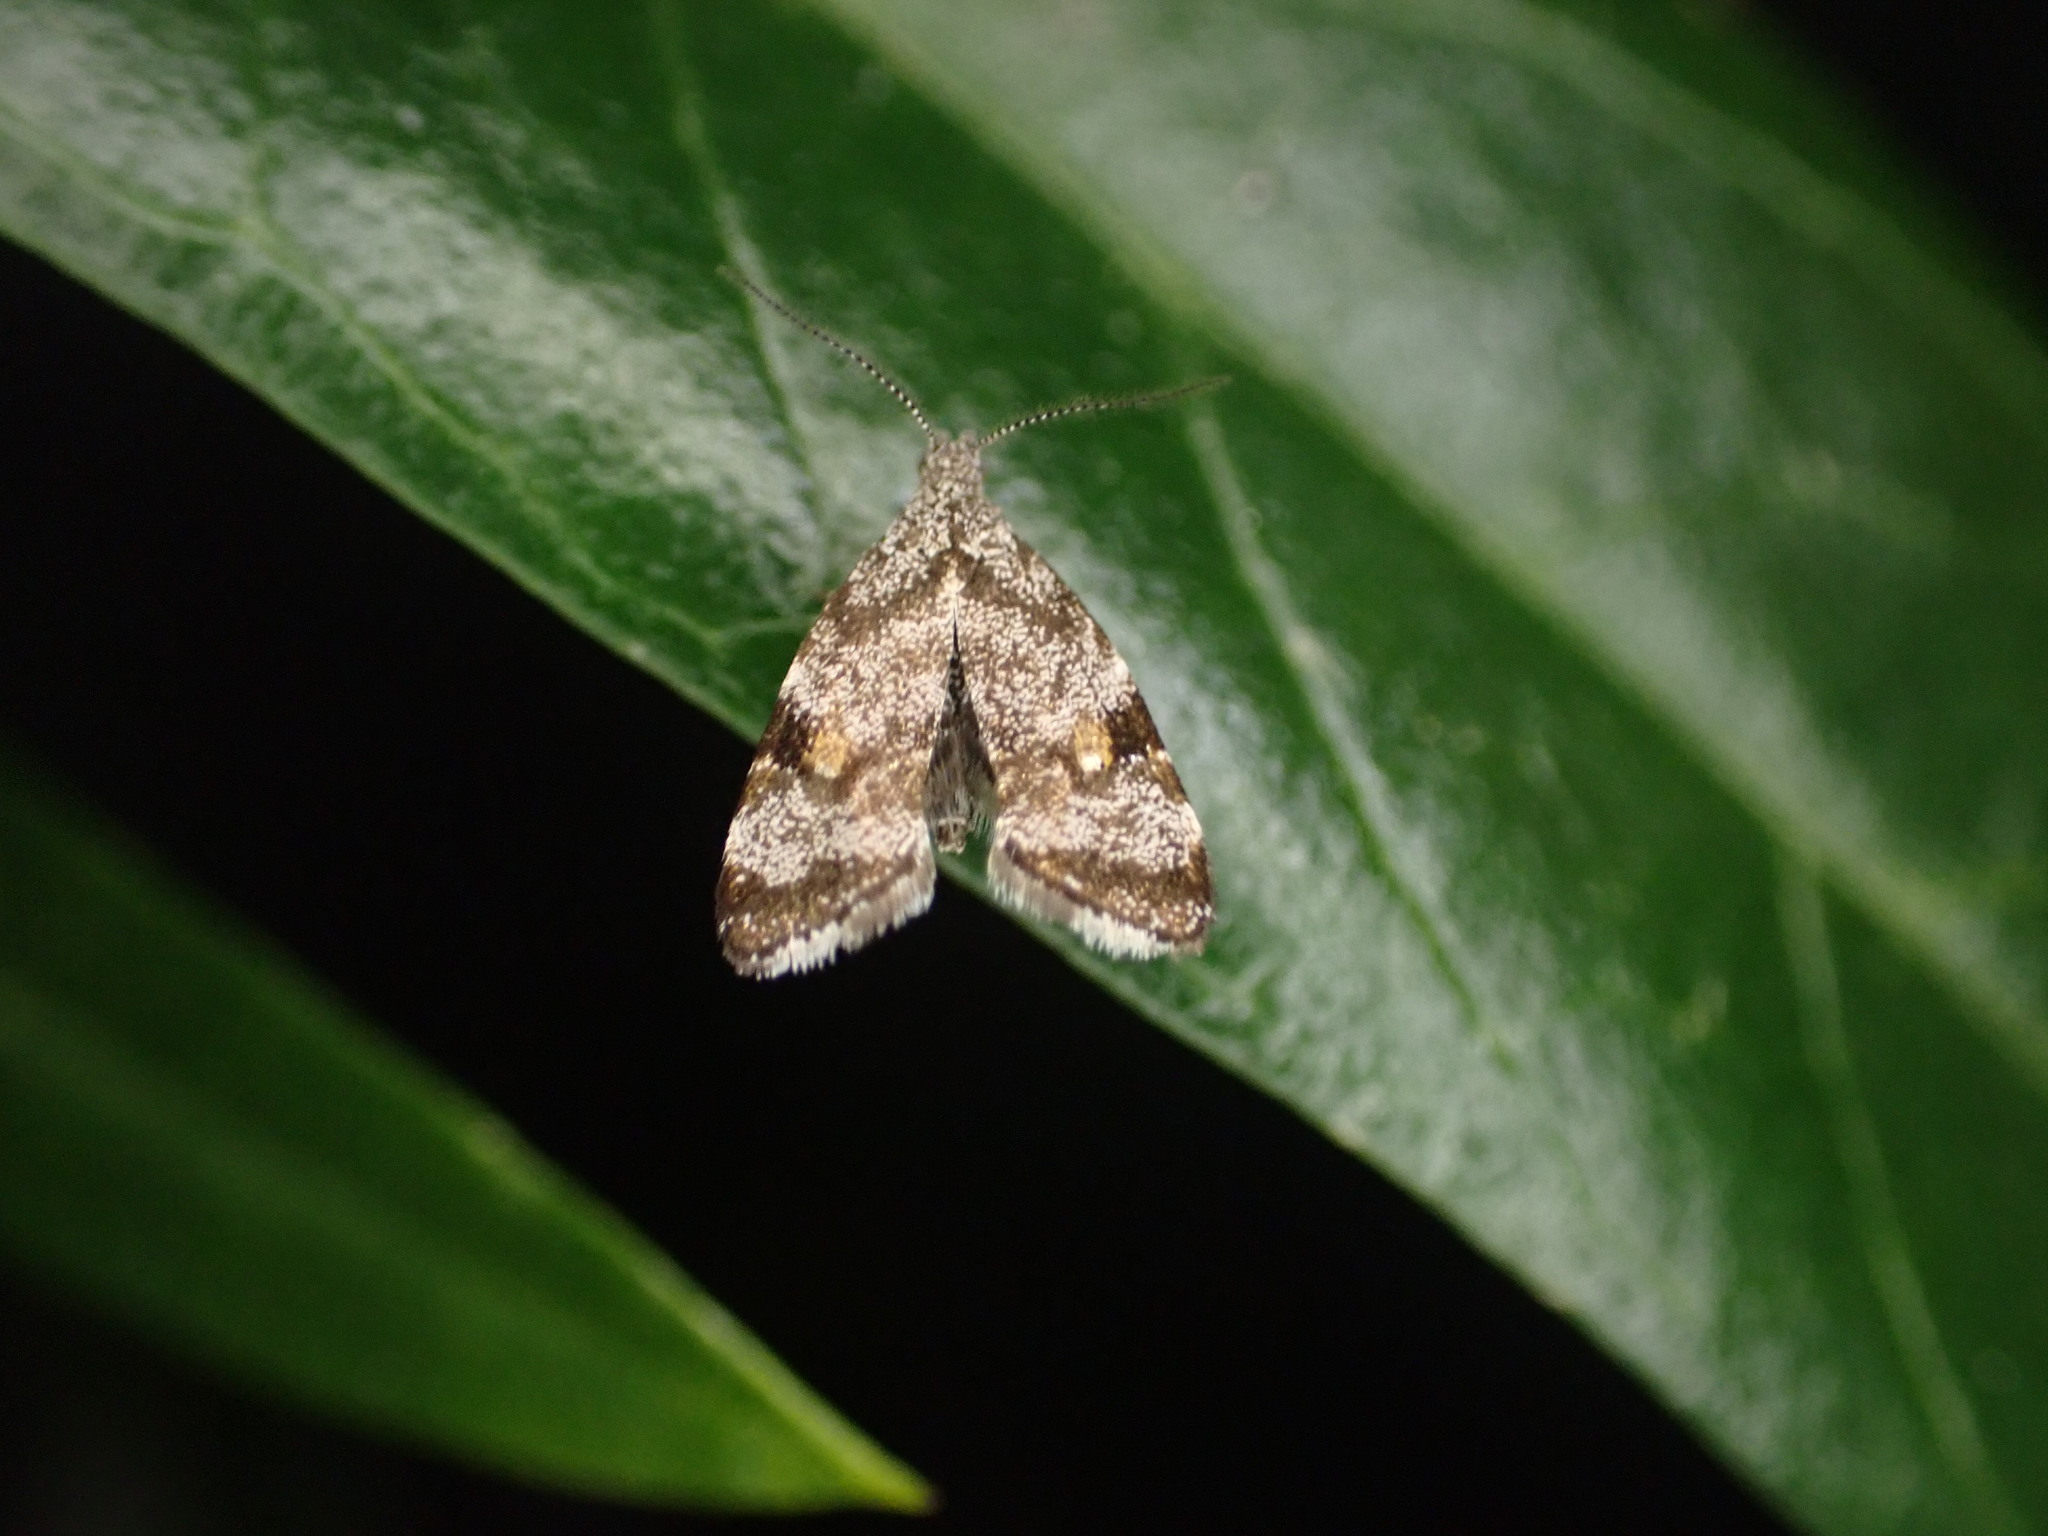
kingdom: Animalia
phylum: Arthropoda
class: Insecta
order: Lepidoptera
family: Choreutidae
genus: Asterivora
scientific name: Asterivora antigrapha
